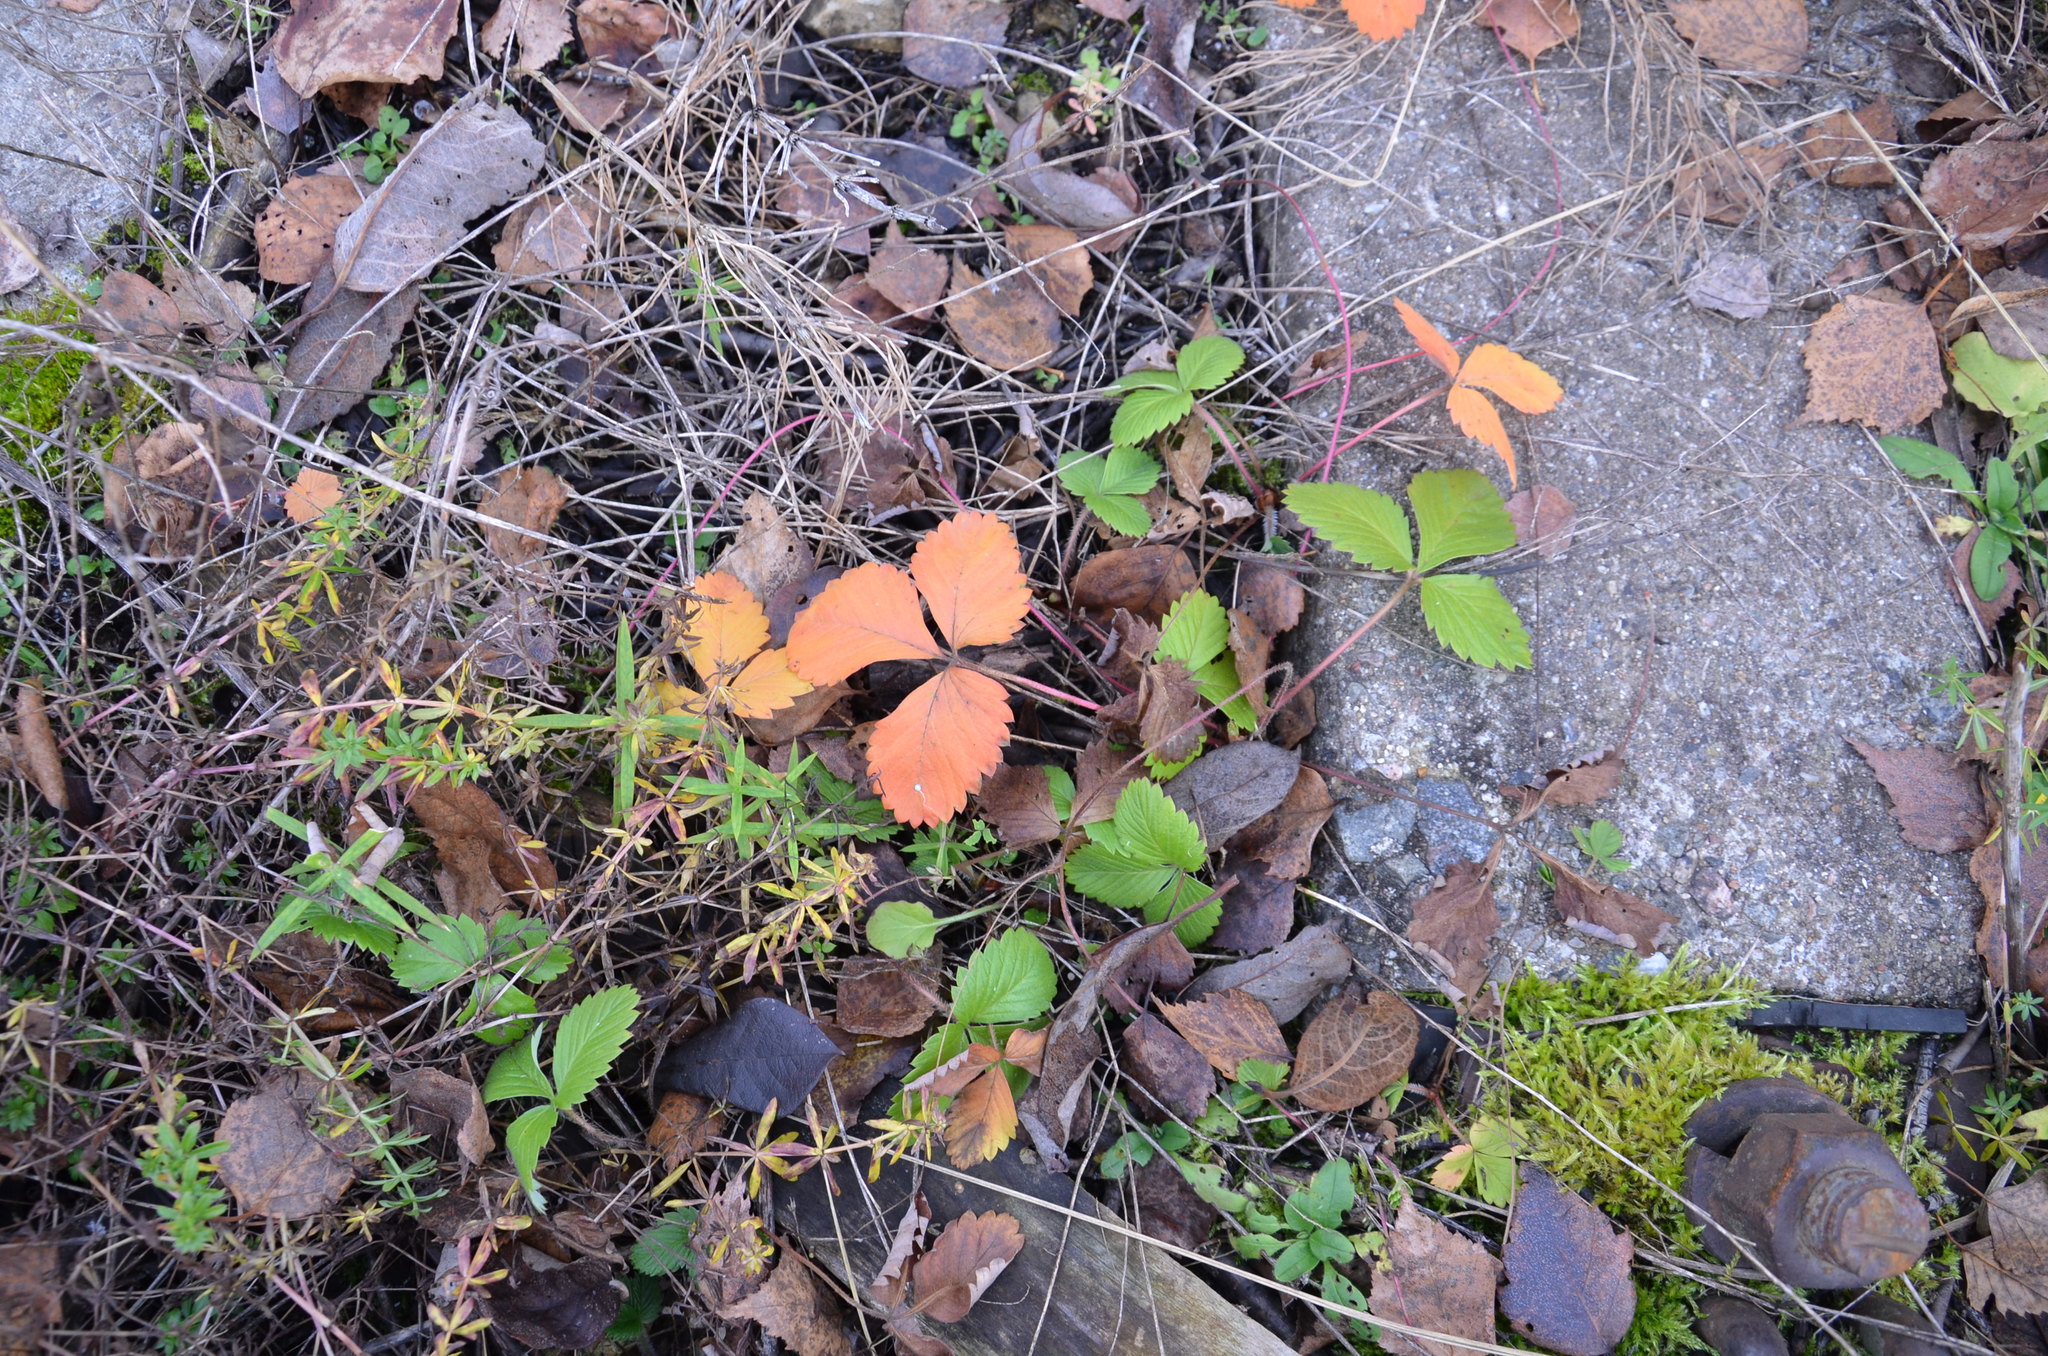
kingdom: Plantae
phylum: Tracheophyta
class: Magnoliopsida
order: Rosales
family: Rosaceae
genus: Fragaria
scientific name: Fragaria vesca
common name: Wild strawberry
